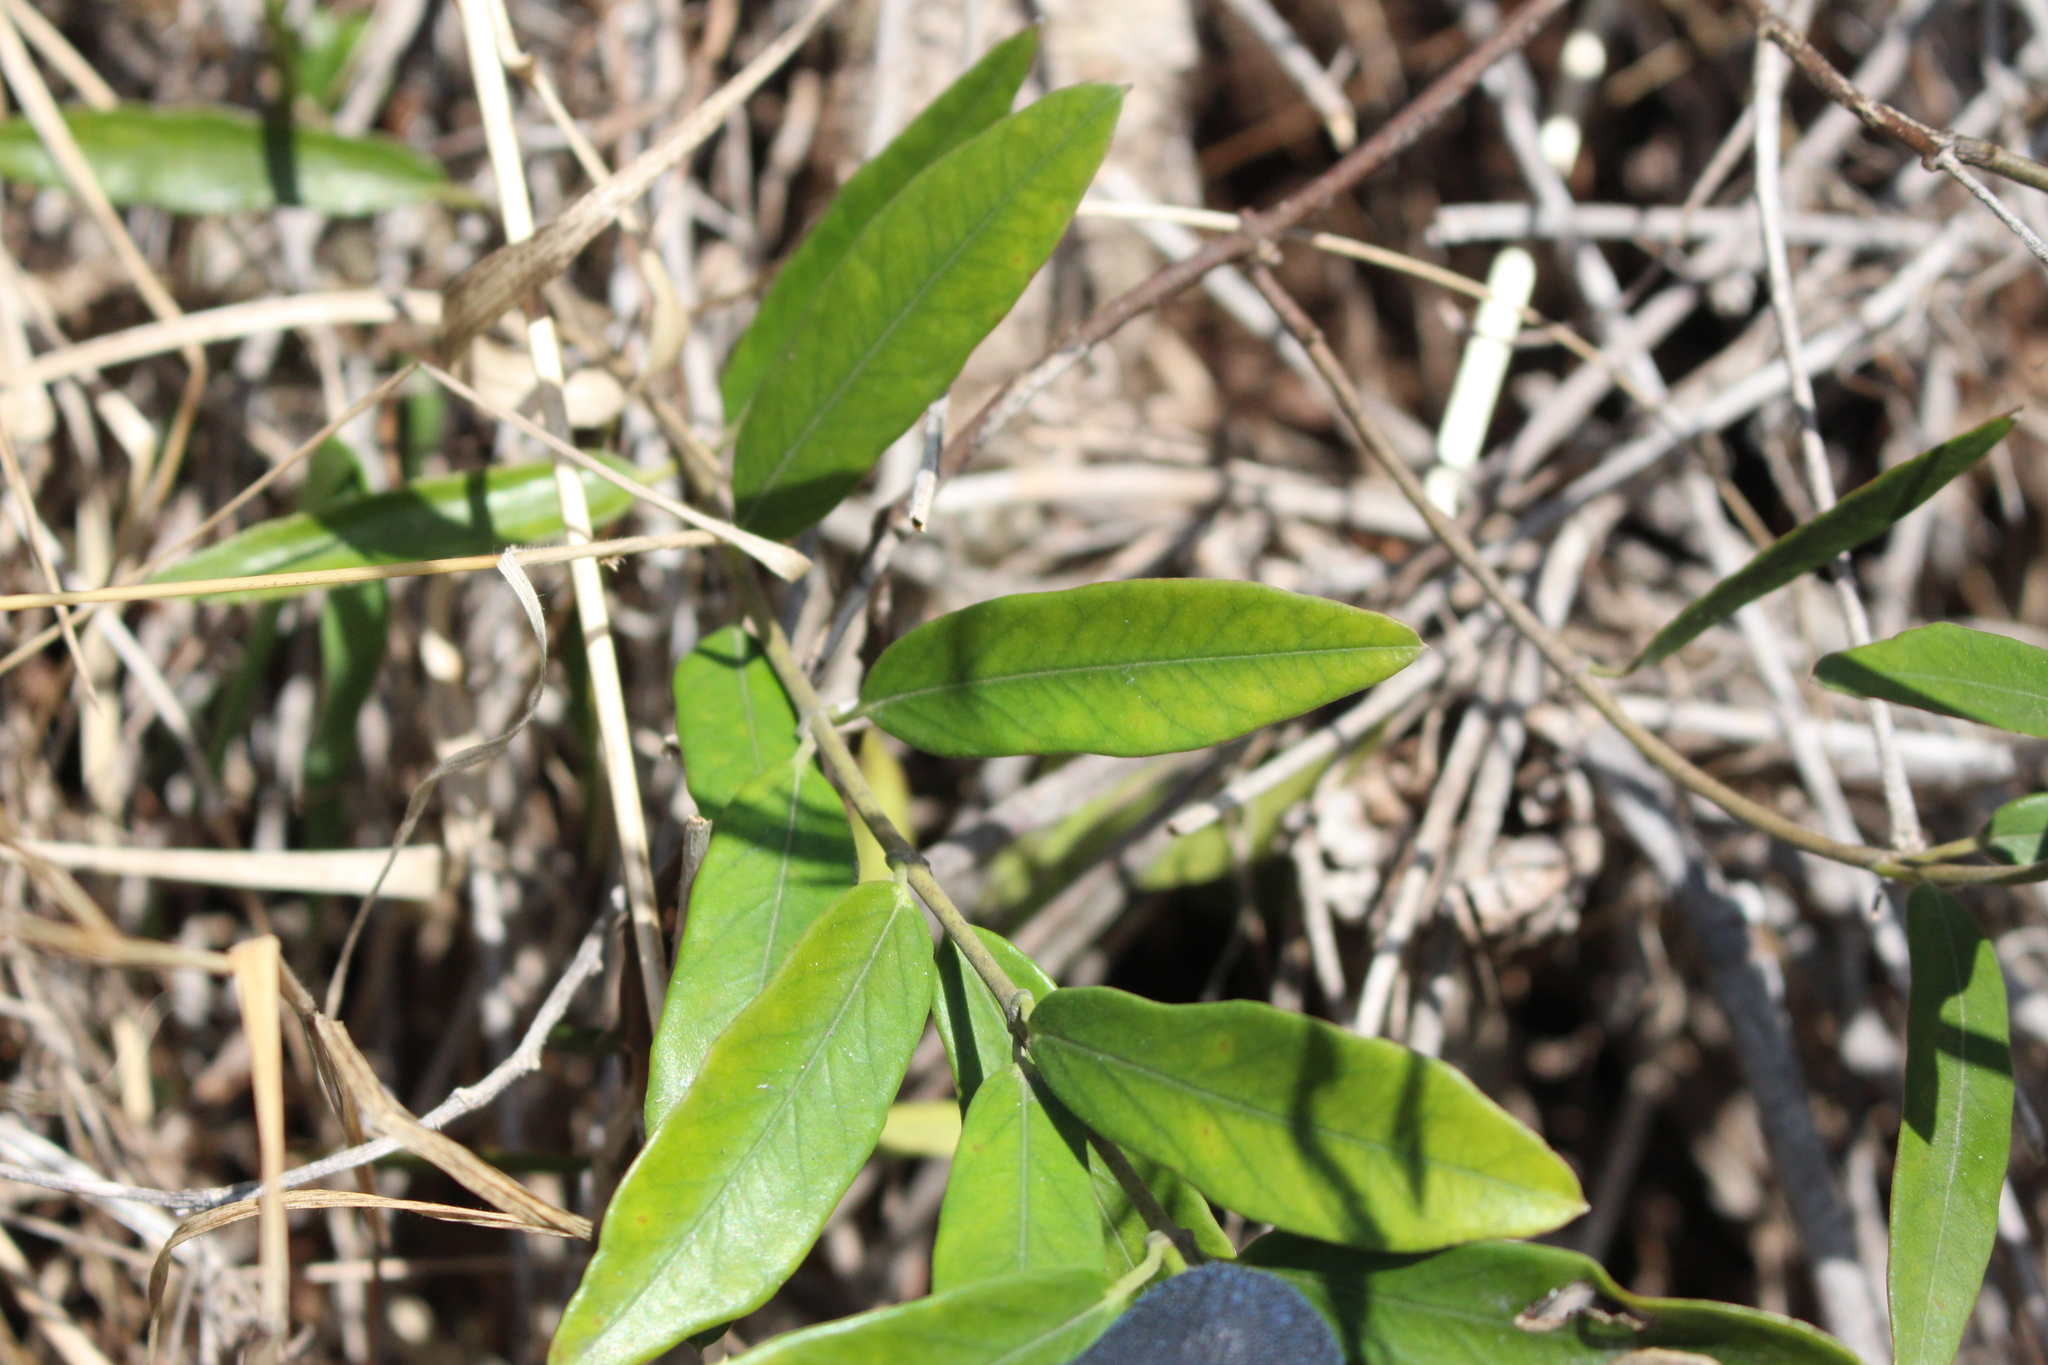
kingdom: Plantae
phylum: Tracheophyta
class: Magnoliopsida
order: Gentianales
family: Apocynaceae
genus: Parsonsia
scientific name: Parsonsia heterophylla
